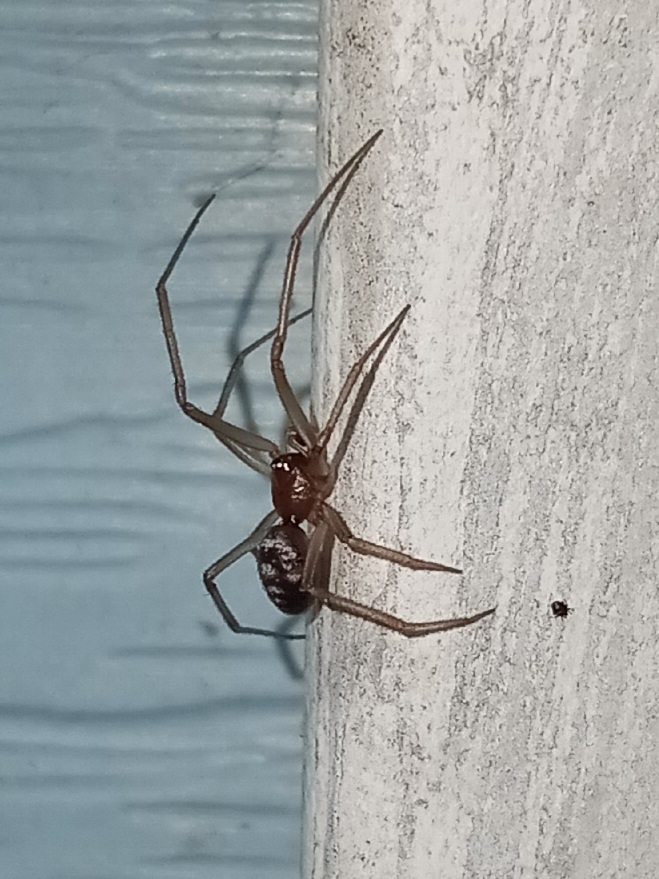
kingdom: Animalia
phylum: Arthropoda
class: Arachnida
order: Araneae
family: Theridiidae
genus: Steatoda
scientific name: Steatoda grossa
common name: False black widow
